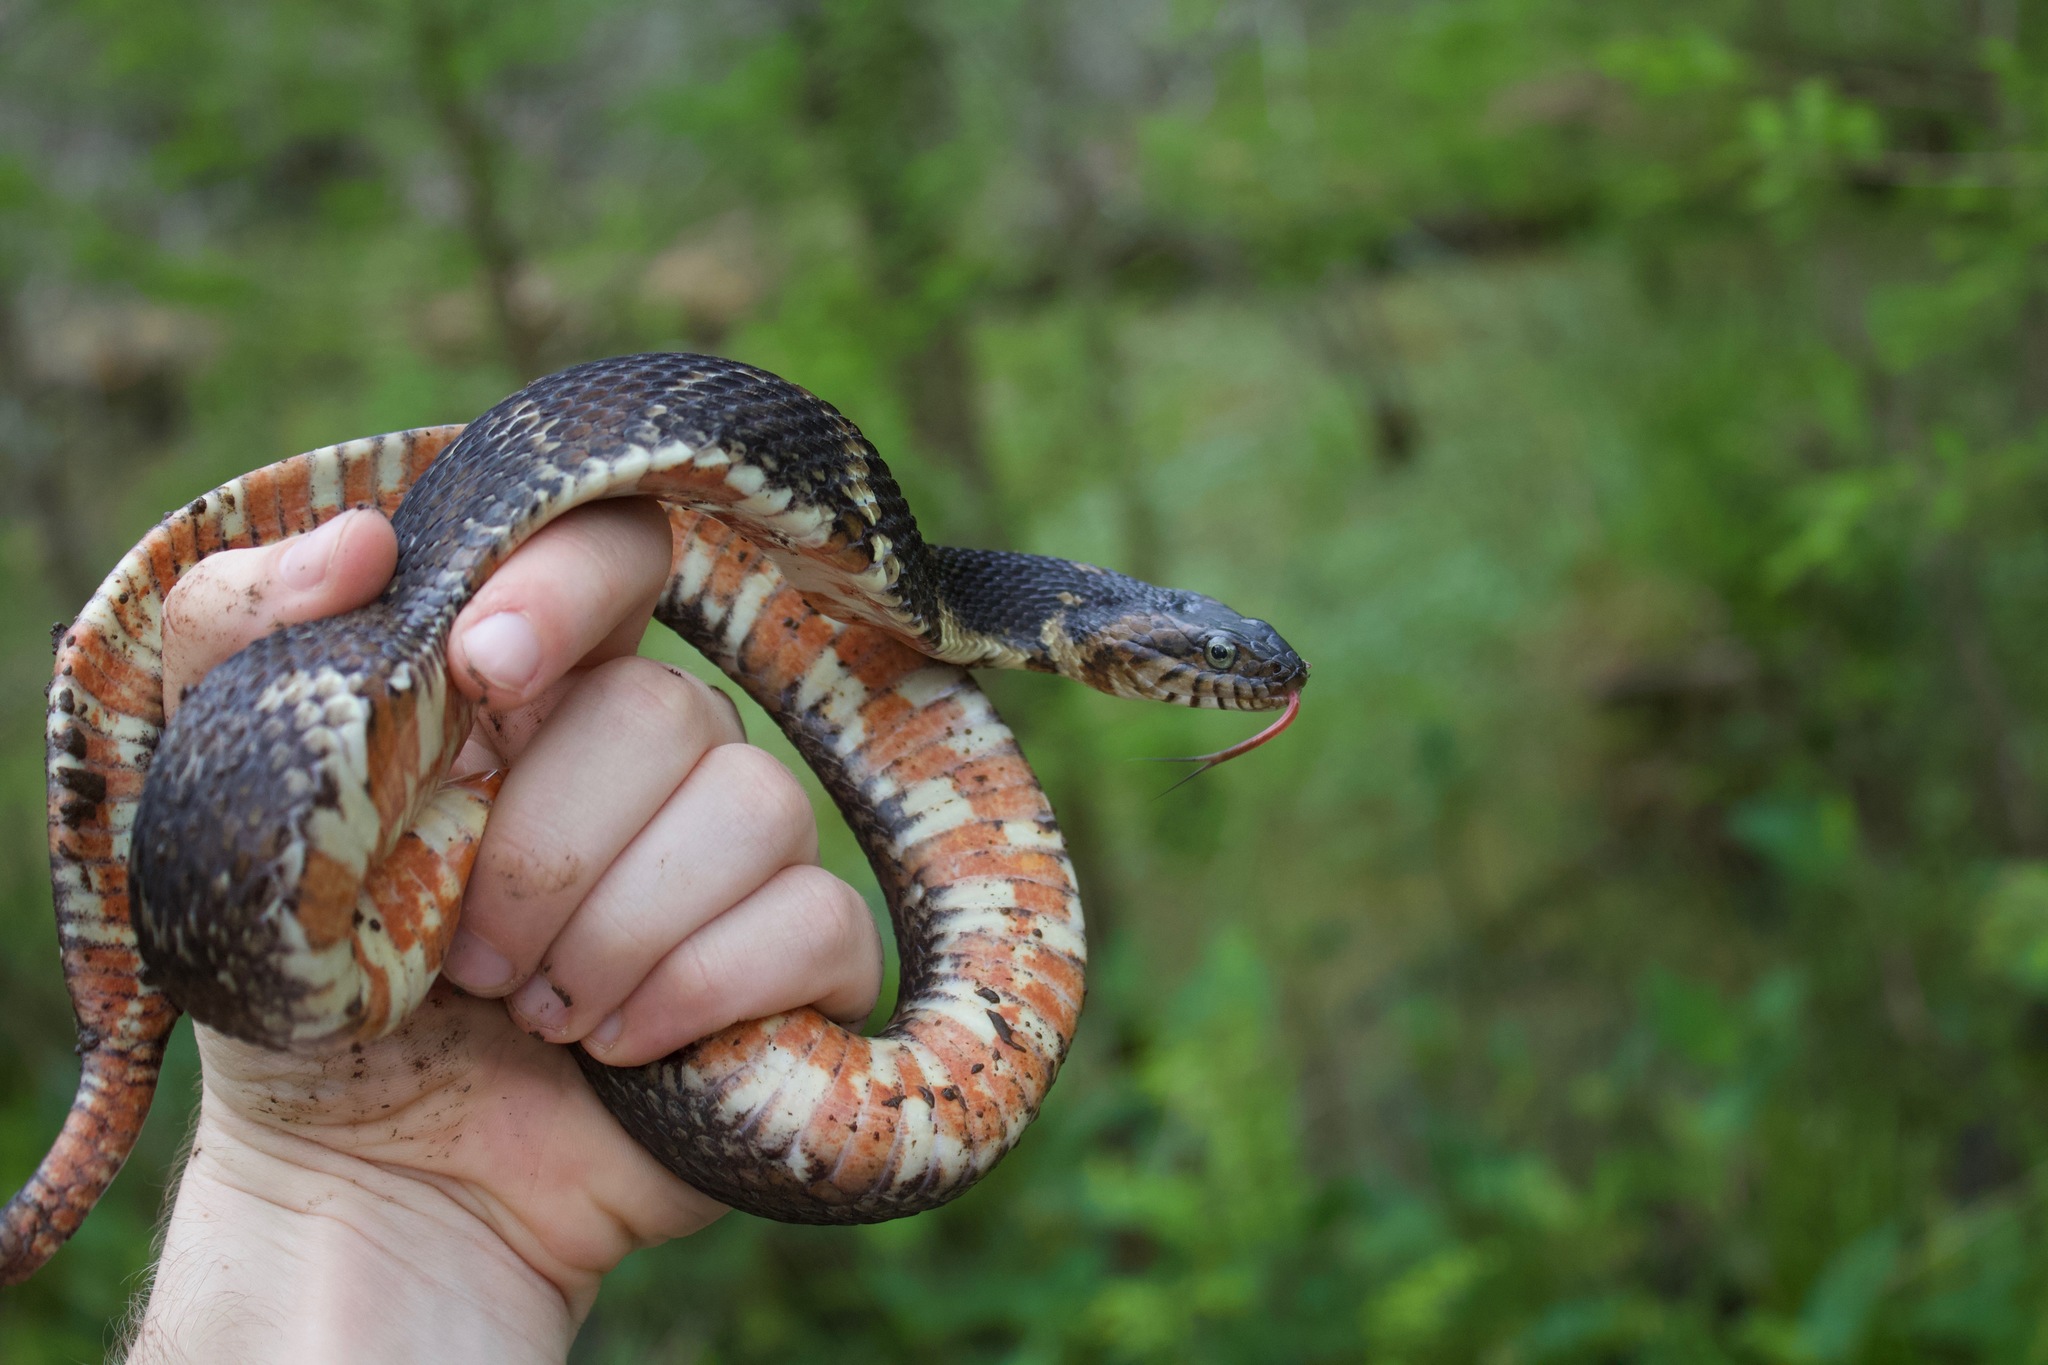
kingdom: Animalia
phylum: Chordata
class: Squamata
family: Colubridae
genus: Nerodia
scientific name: Nerodia fasciata
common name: Southern water snake
